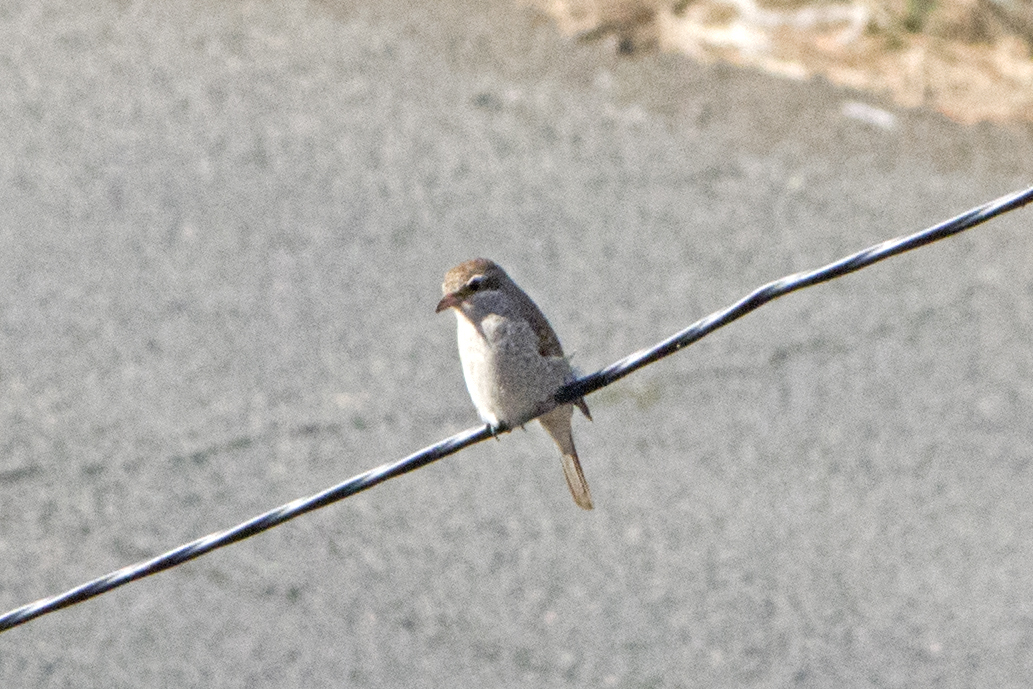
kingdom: Animalia
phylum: Chordata
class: Aves
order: Passeriformes
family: Laniidae
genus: Lanius
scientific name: Lanius collurio
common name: Red-backed shrike
